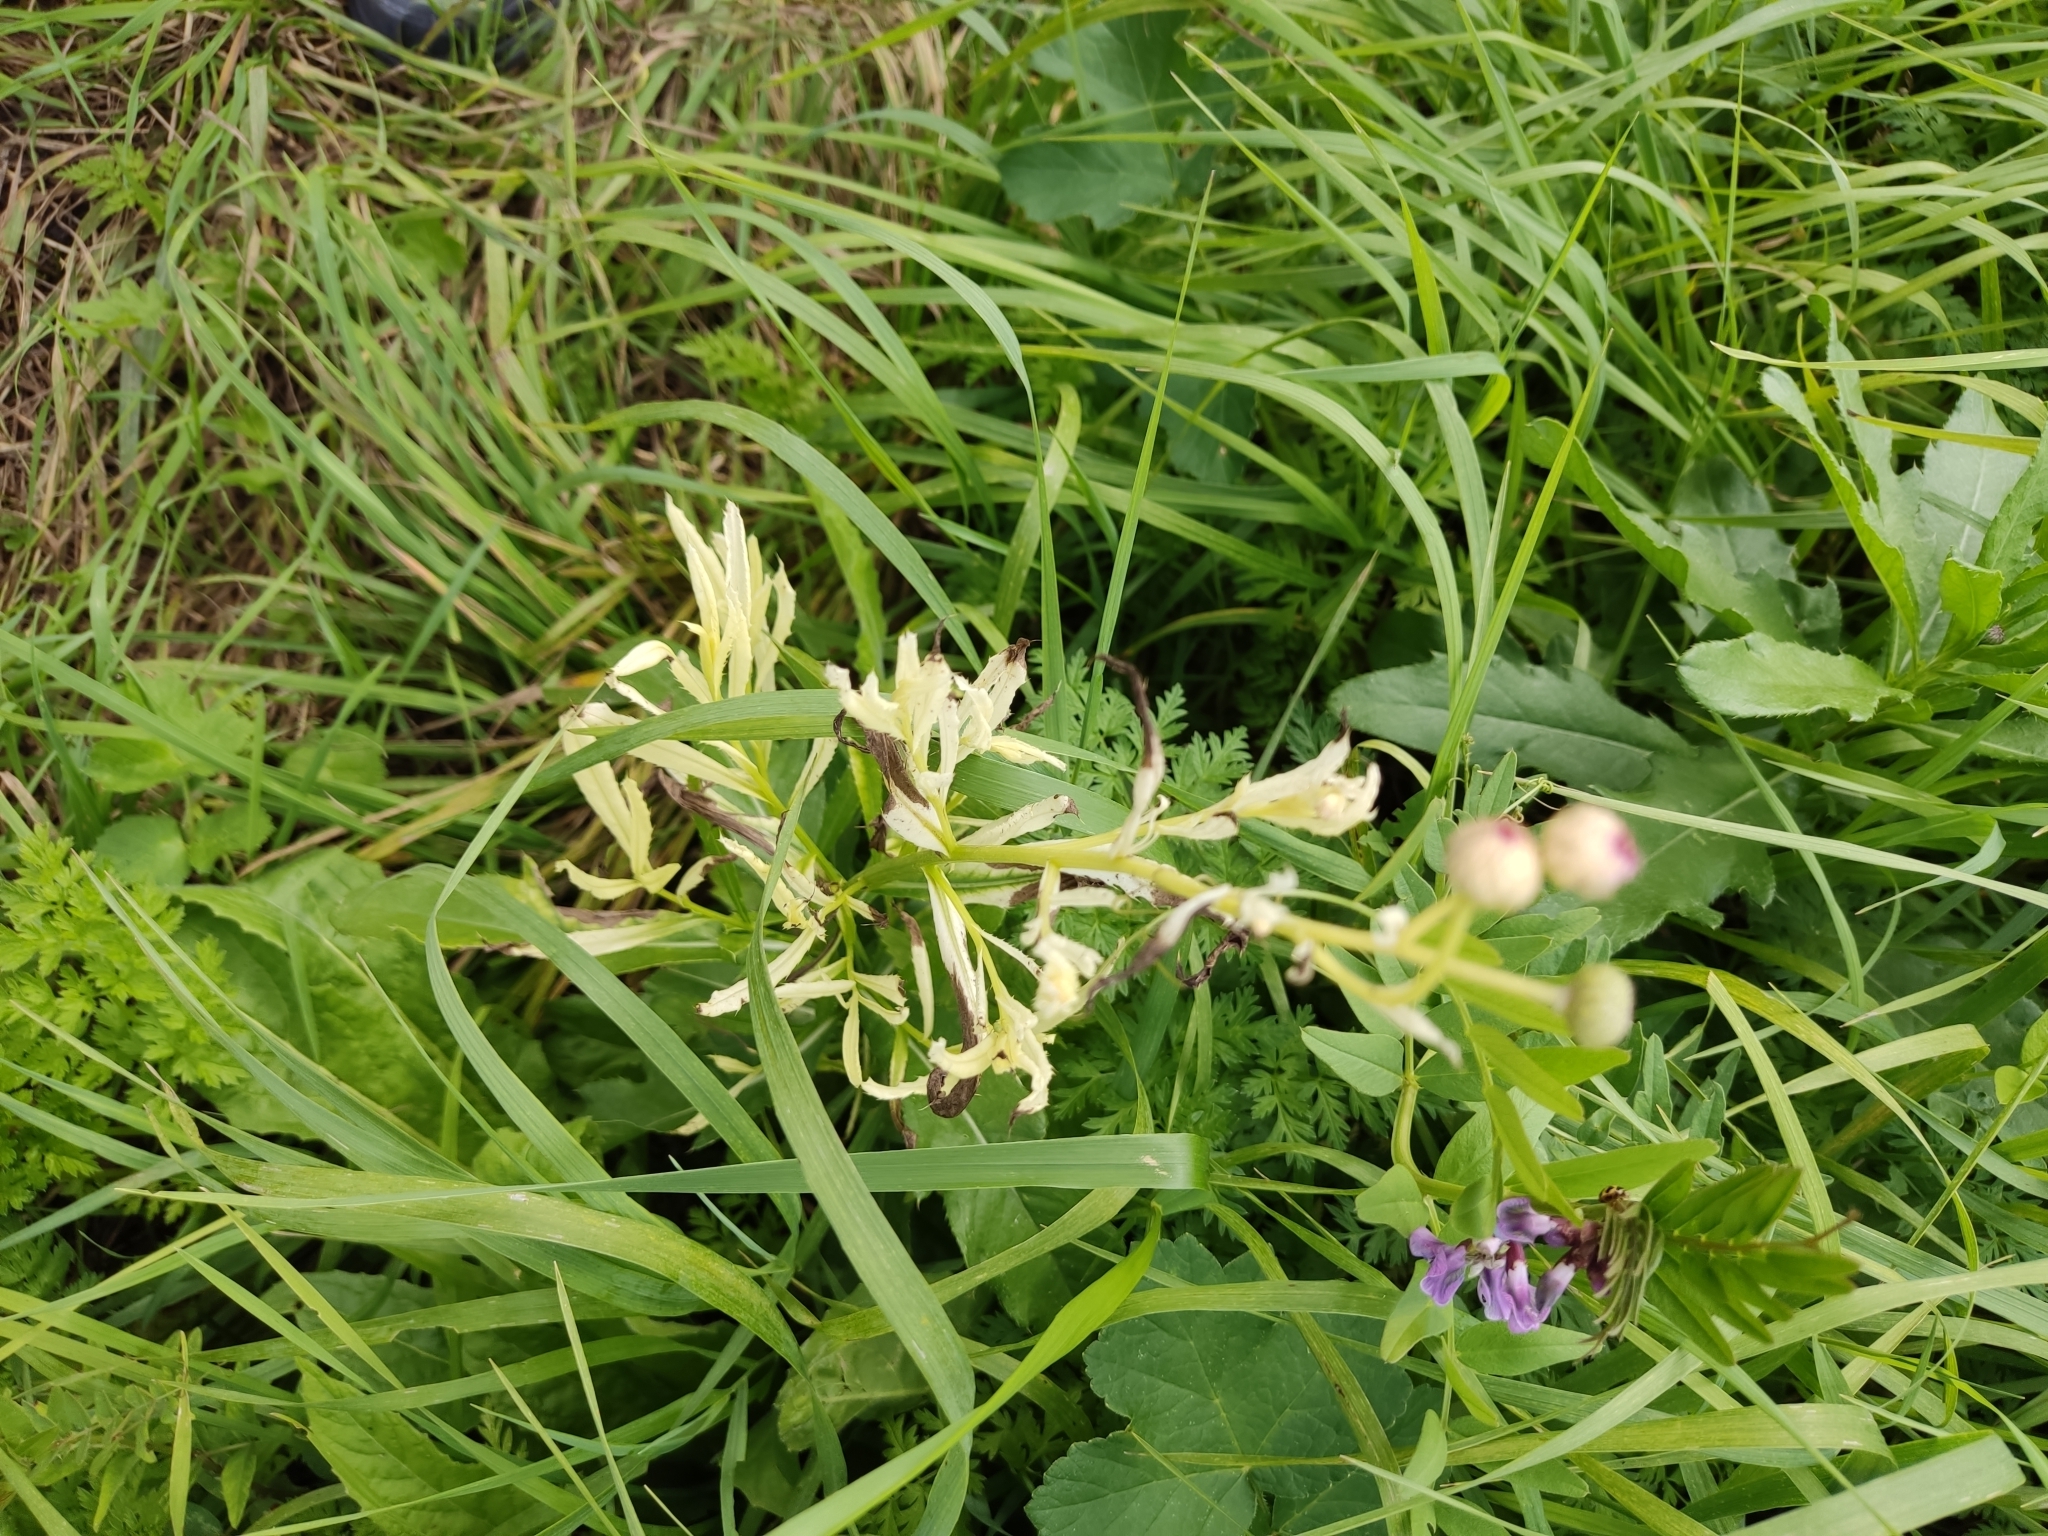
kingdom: Bacteria
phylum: Proteobacteria
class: Gammaproteobacteria
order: Pseudomonadales
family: Pseudomonadaceae
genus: Pseudomonas
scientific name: Pseudomonas syringae
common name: Bacterial speck
